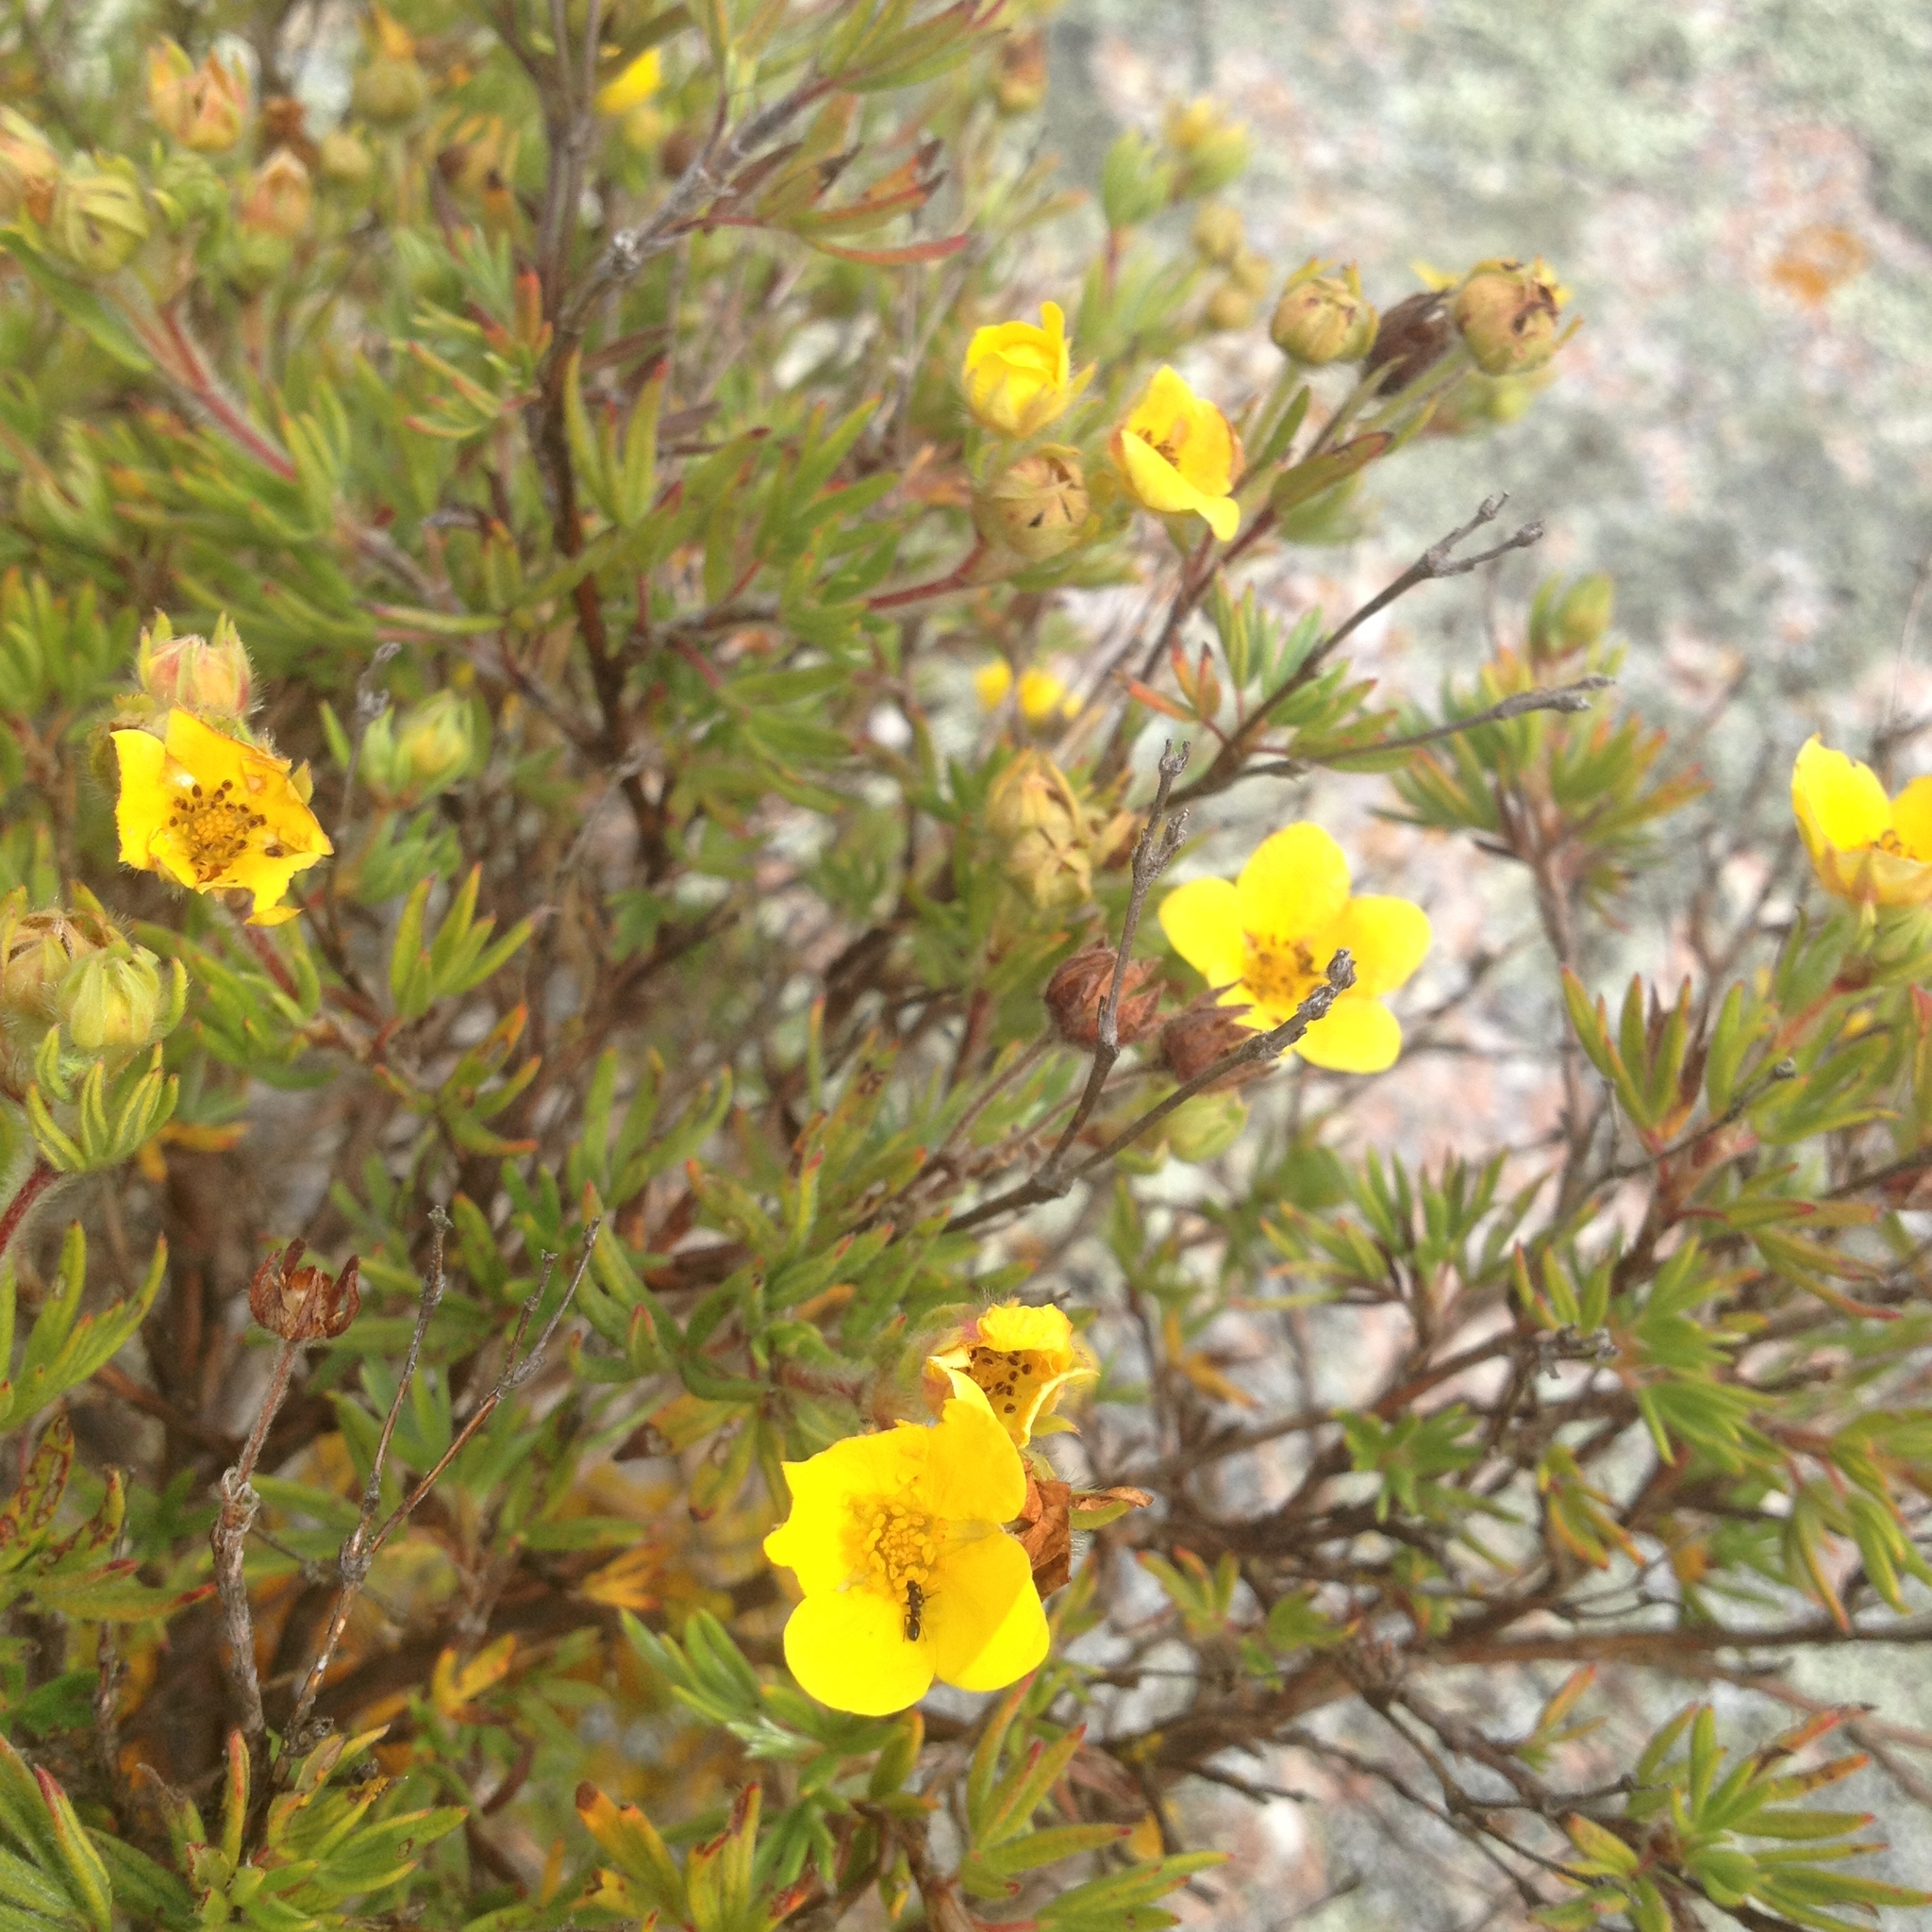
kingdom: Plantae
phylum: Tracheophyta
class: Magnoliopsida
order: Rosales
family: Rosaceae
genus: Dasiphora
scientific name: Dasiphora fruticosa
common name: Shrubby cinquefoil
